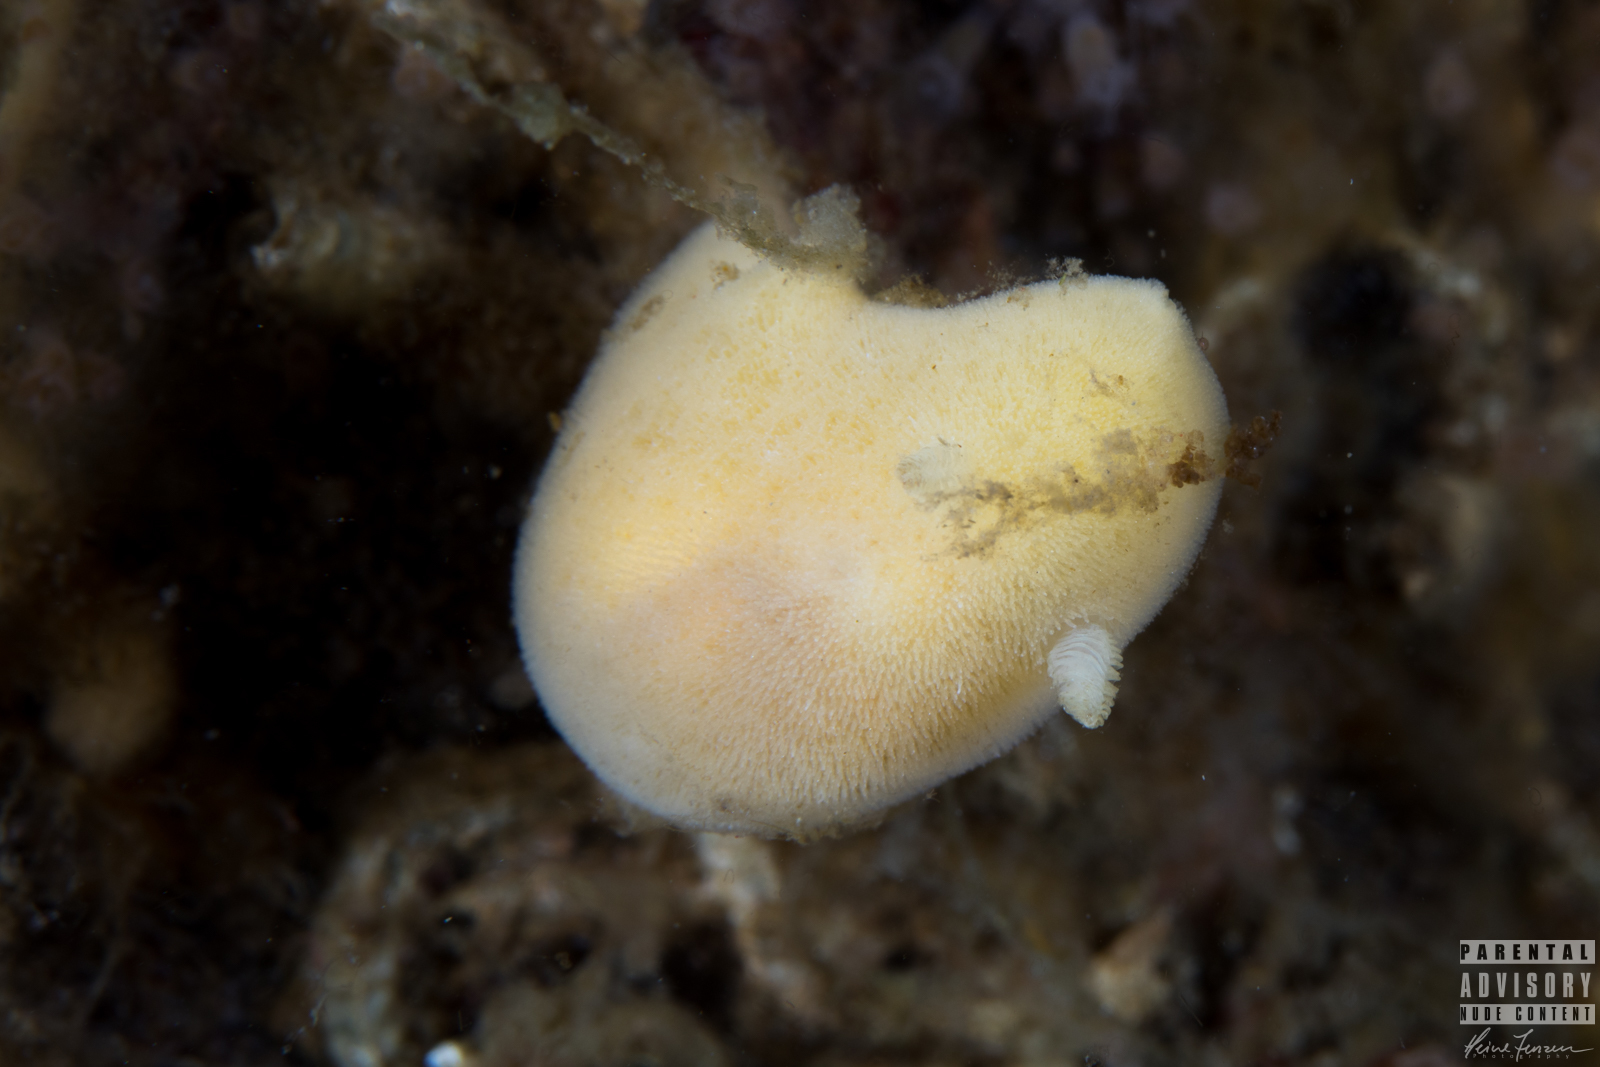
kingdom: Animalia
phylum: Mollusca
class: Gastropoda
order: Nudibranchia
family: Discodorididae
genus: Jorunna
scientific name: Jorunna tomentosa
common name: Grey sea slug
